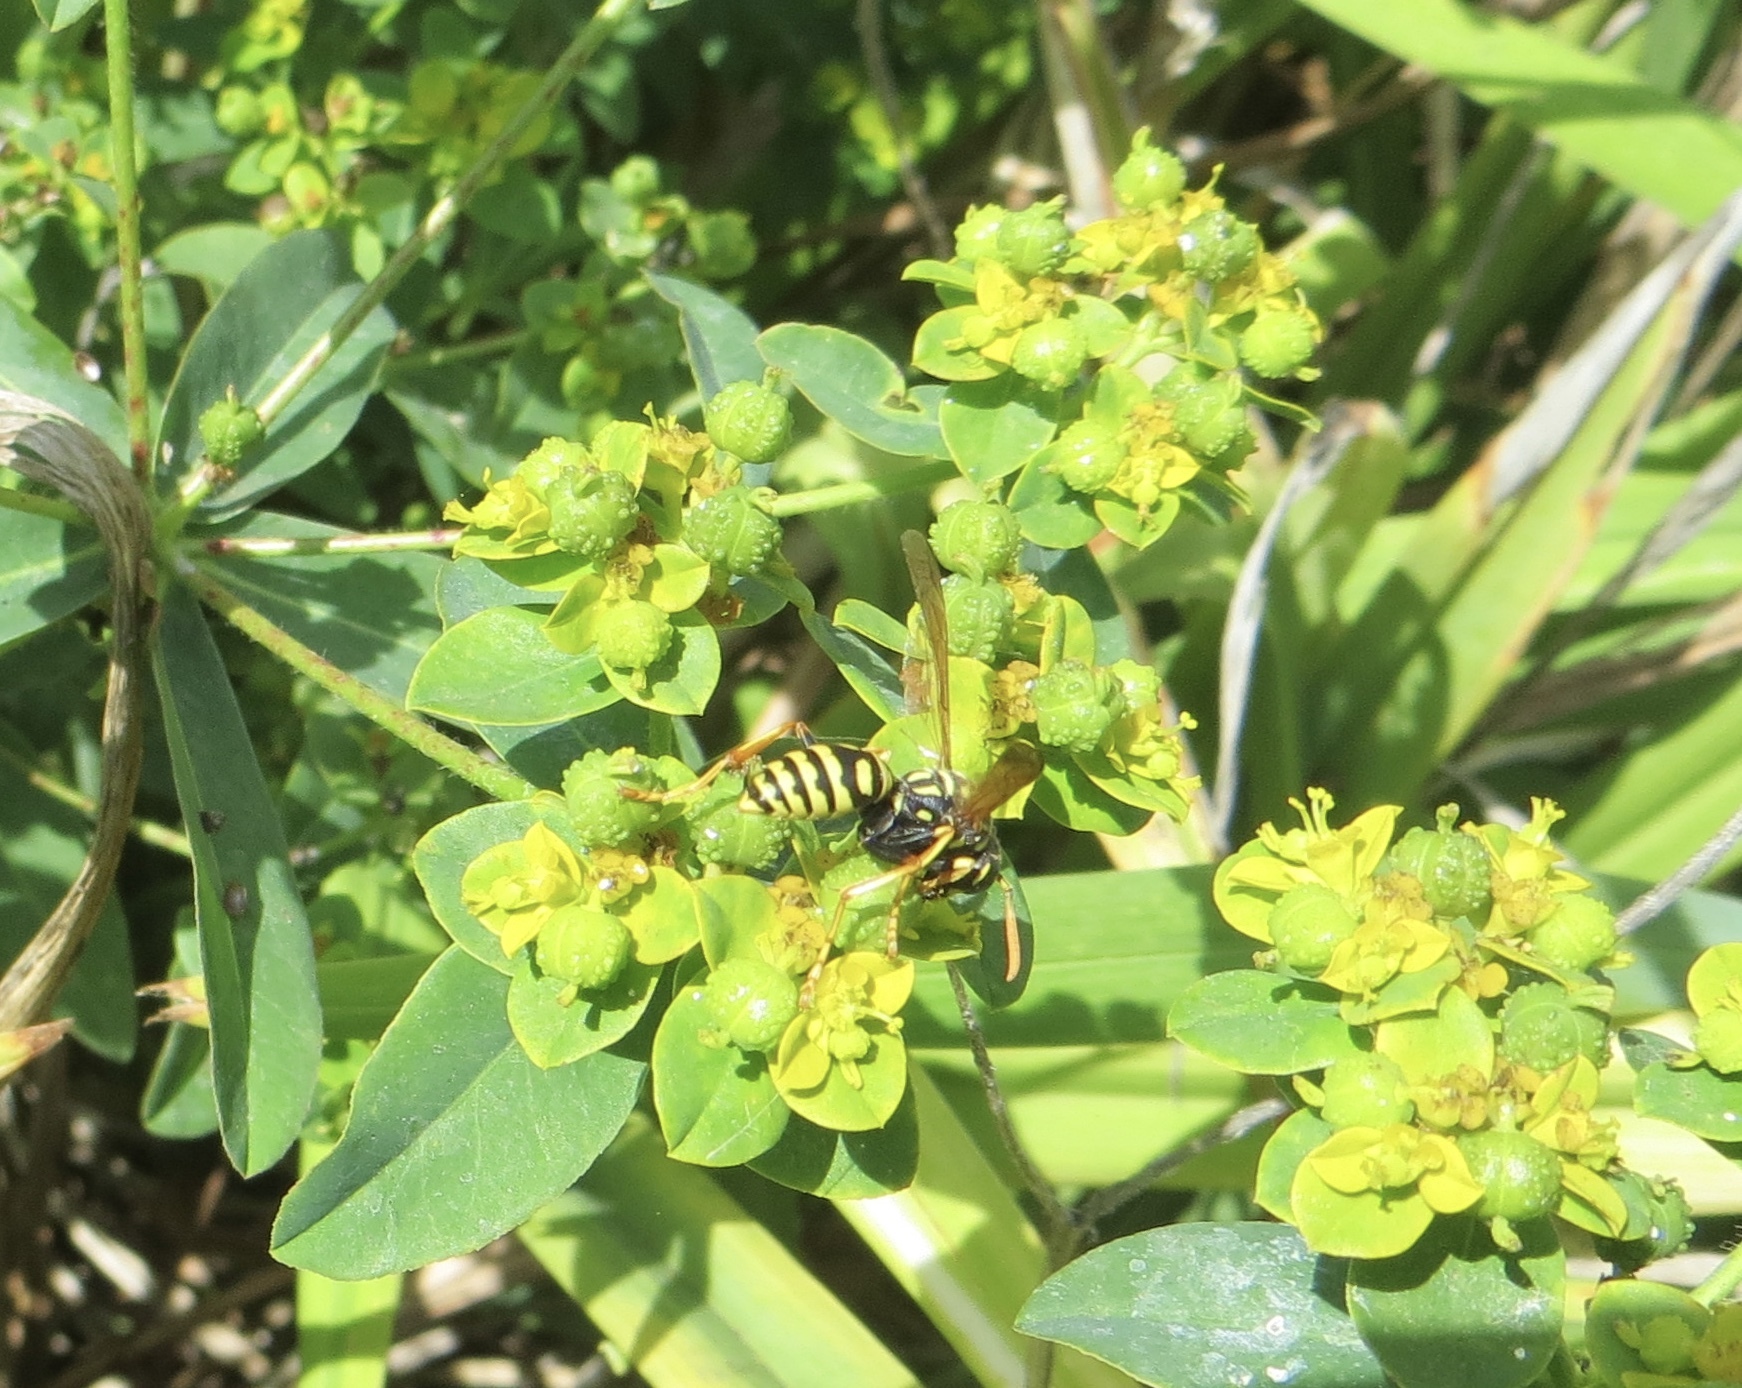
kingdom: Animalia
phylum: Arthropoda
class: Insecta
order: Hymenoptera
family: Eumenidae
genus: Polistes
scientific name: Polistes dominula
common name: Paper wasp
